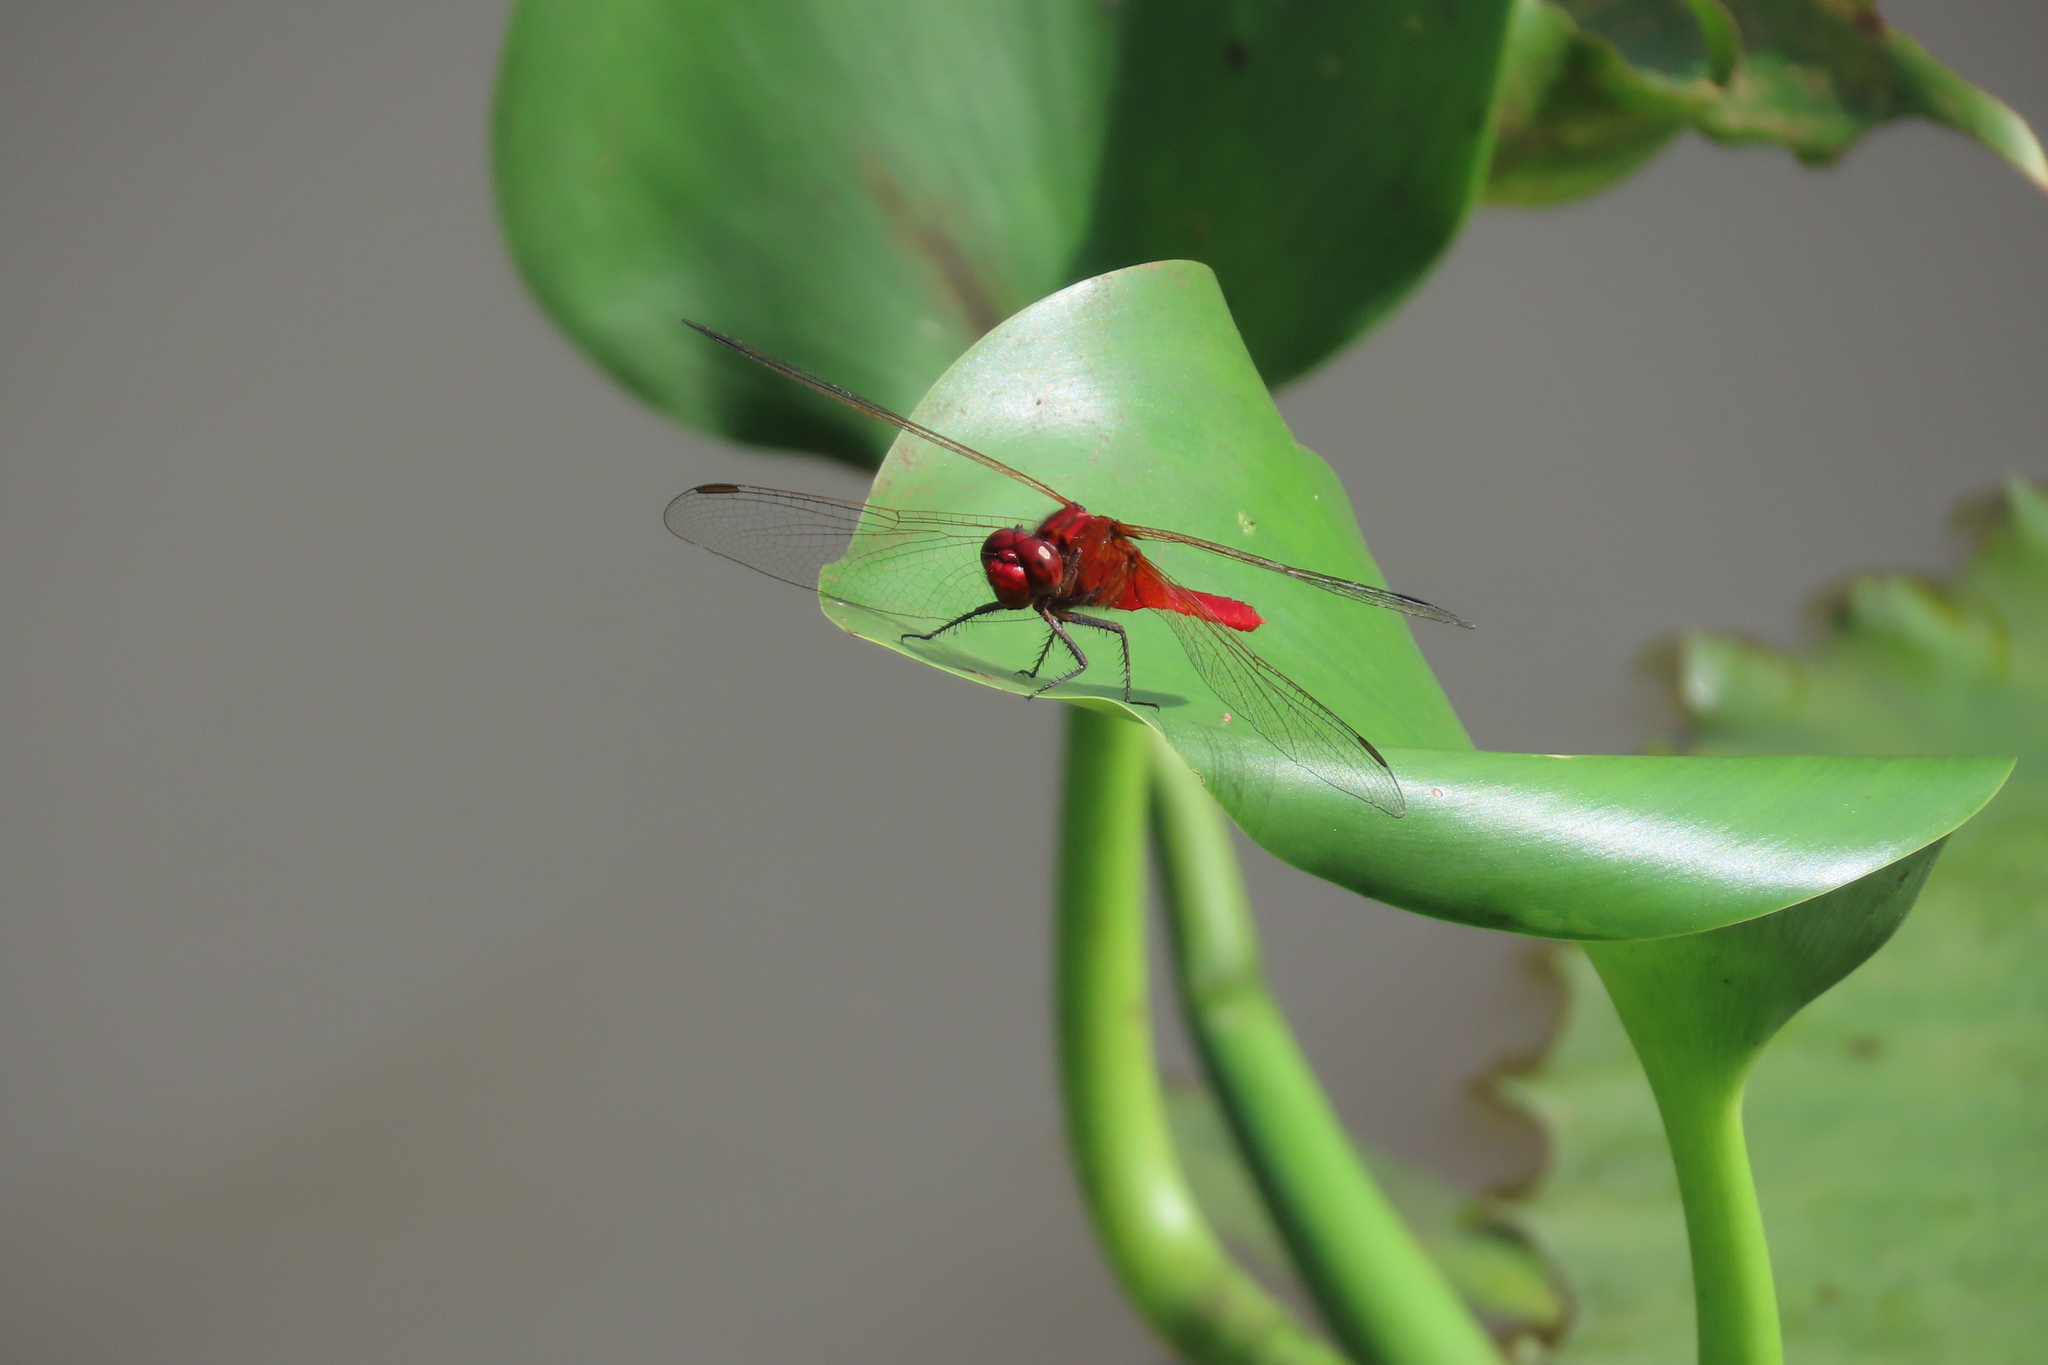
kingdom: Animalia
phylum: Arthropoda
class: Insecta
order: Odonata
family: Libellulidae
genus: Rhodothemis
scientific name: Rhodothemis rufa
